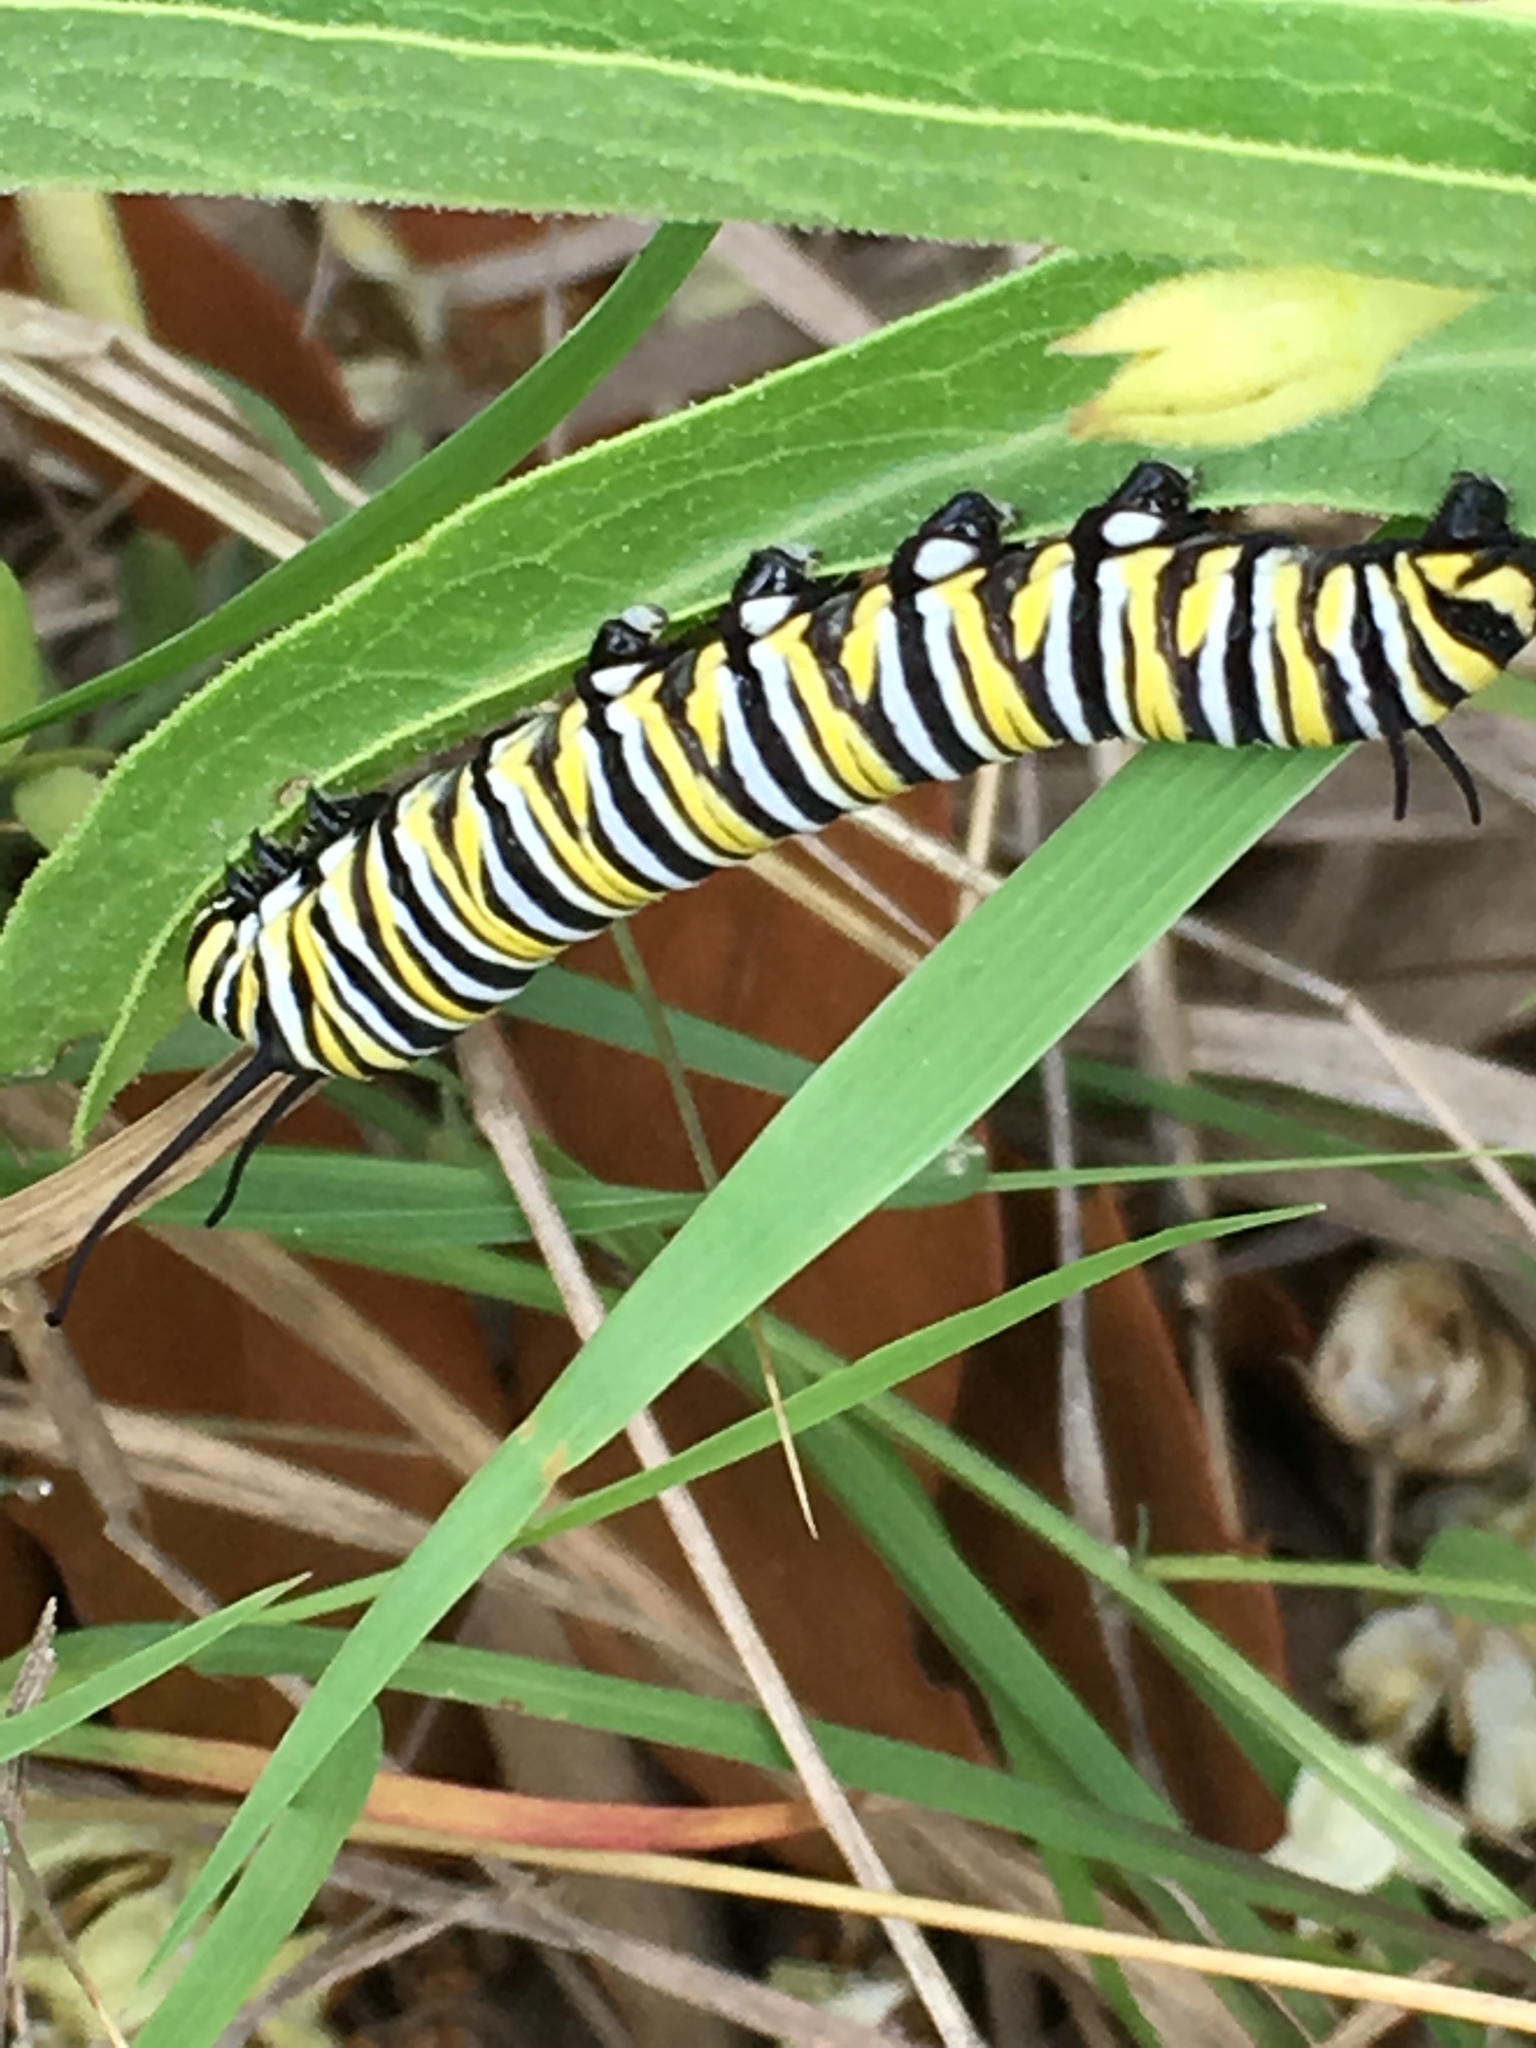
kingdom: Animalia
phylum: Arthropoda
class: Insecta
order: Lepidoptera
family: Nymphalidae
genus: Danaus
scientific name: Danaus plexippus
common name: Monarch
